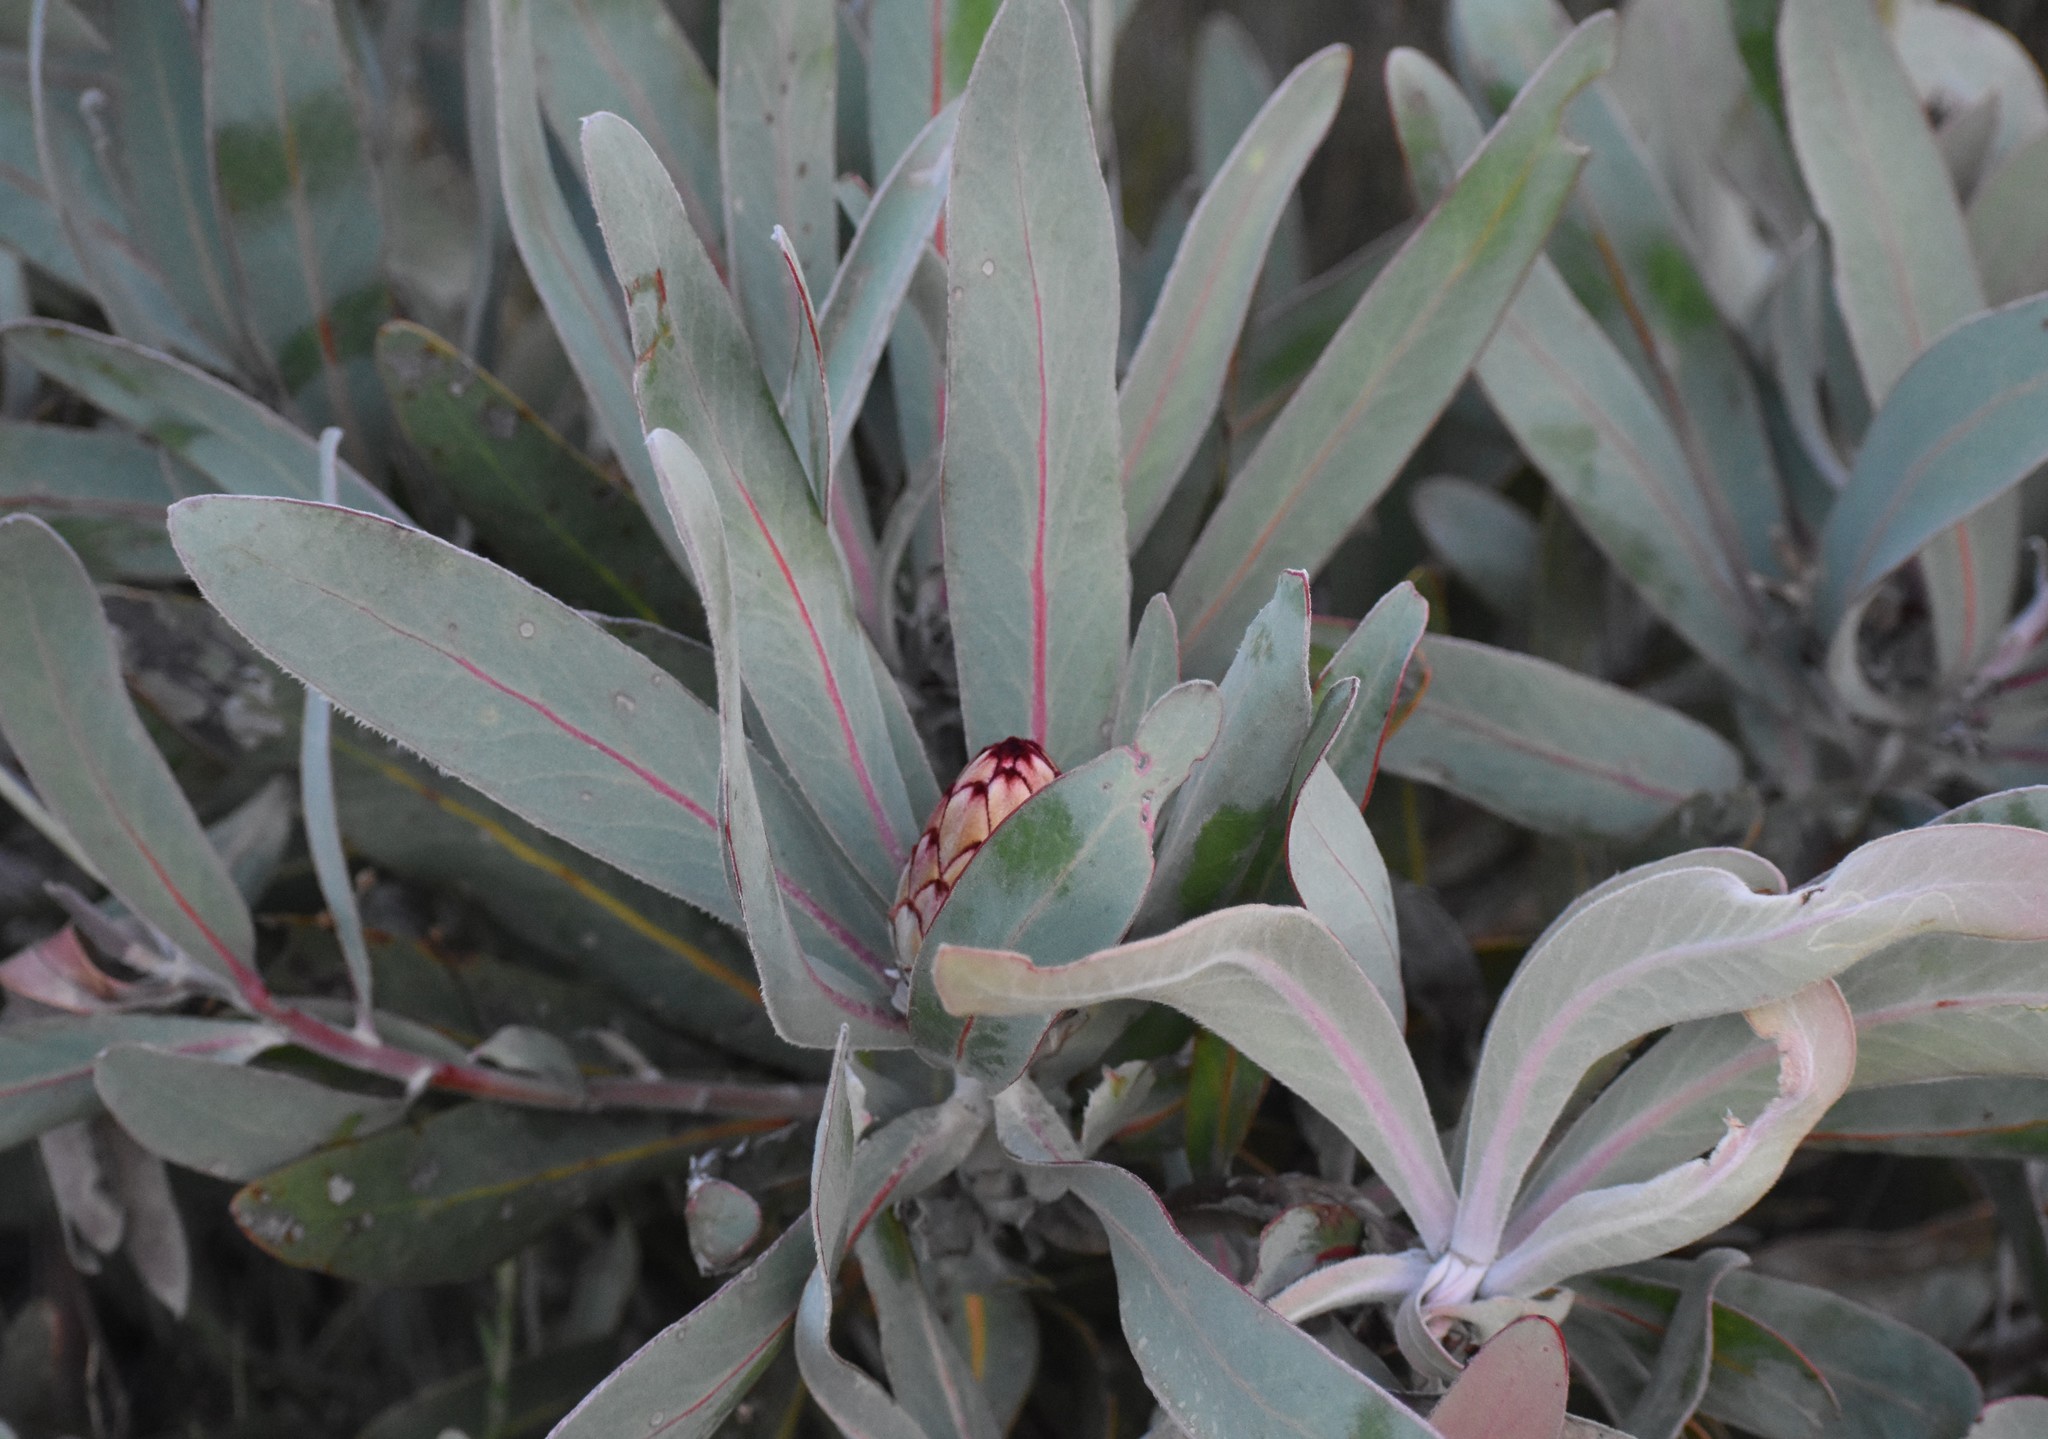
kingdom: Plantae
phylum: Tracheophyta
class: Magnoliopsida
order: Proteales
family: Proteaceae
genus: Protea
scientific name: Protea lorifolia
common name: Strap-leaved protea
